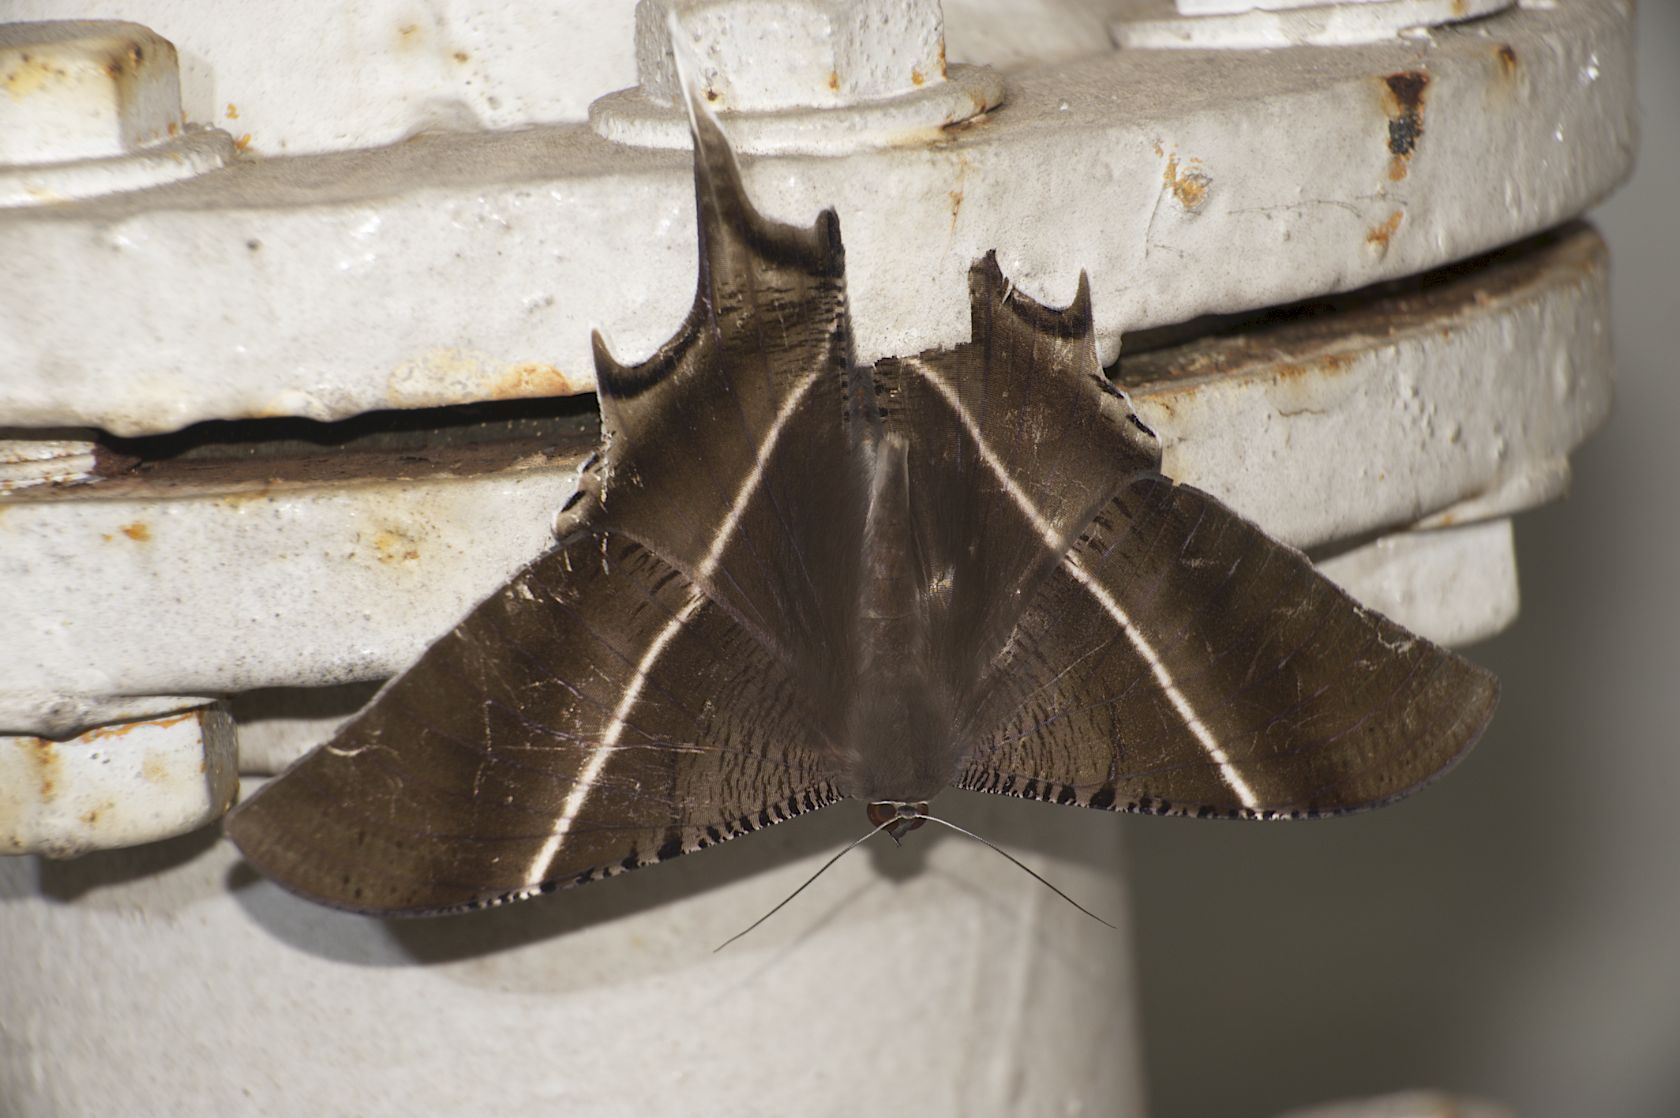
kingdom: Animalia
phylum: Arthropoda
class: Insecta
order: Lepidoptera
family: Uraniidae
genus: Lyssa
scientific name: Lyssa zampa
